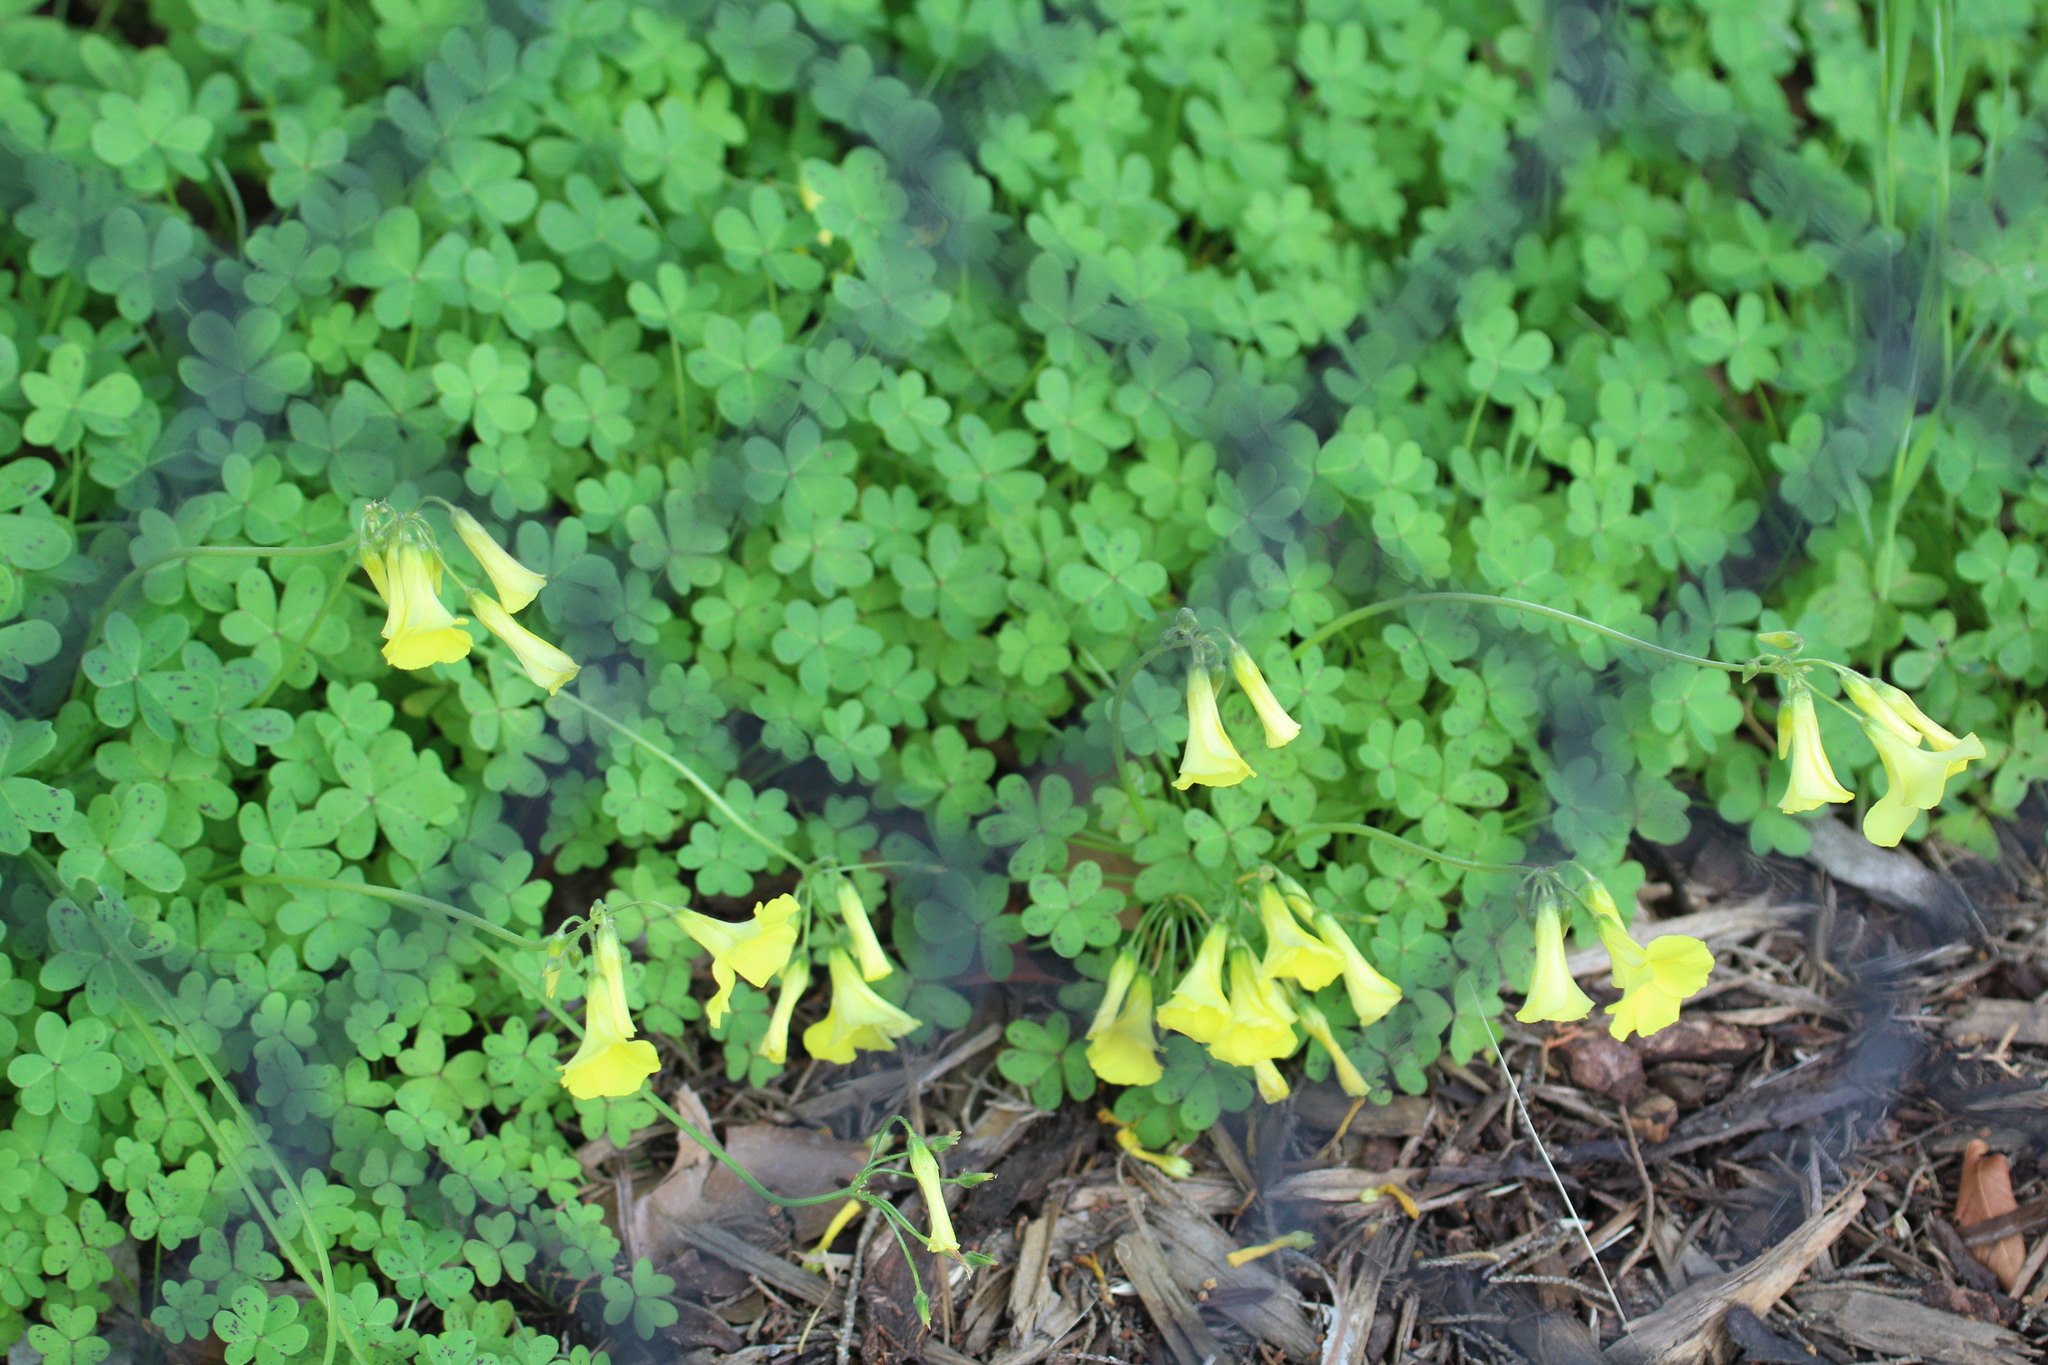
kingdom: Plantae
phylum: Tracheophyta
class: Magnoliopsida
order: Oxalidales
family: Oxalidaceae
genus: Oxalis
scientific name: Oxalis pes-caprae
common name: Bermuda-buttercup
